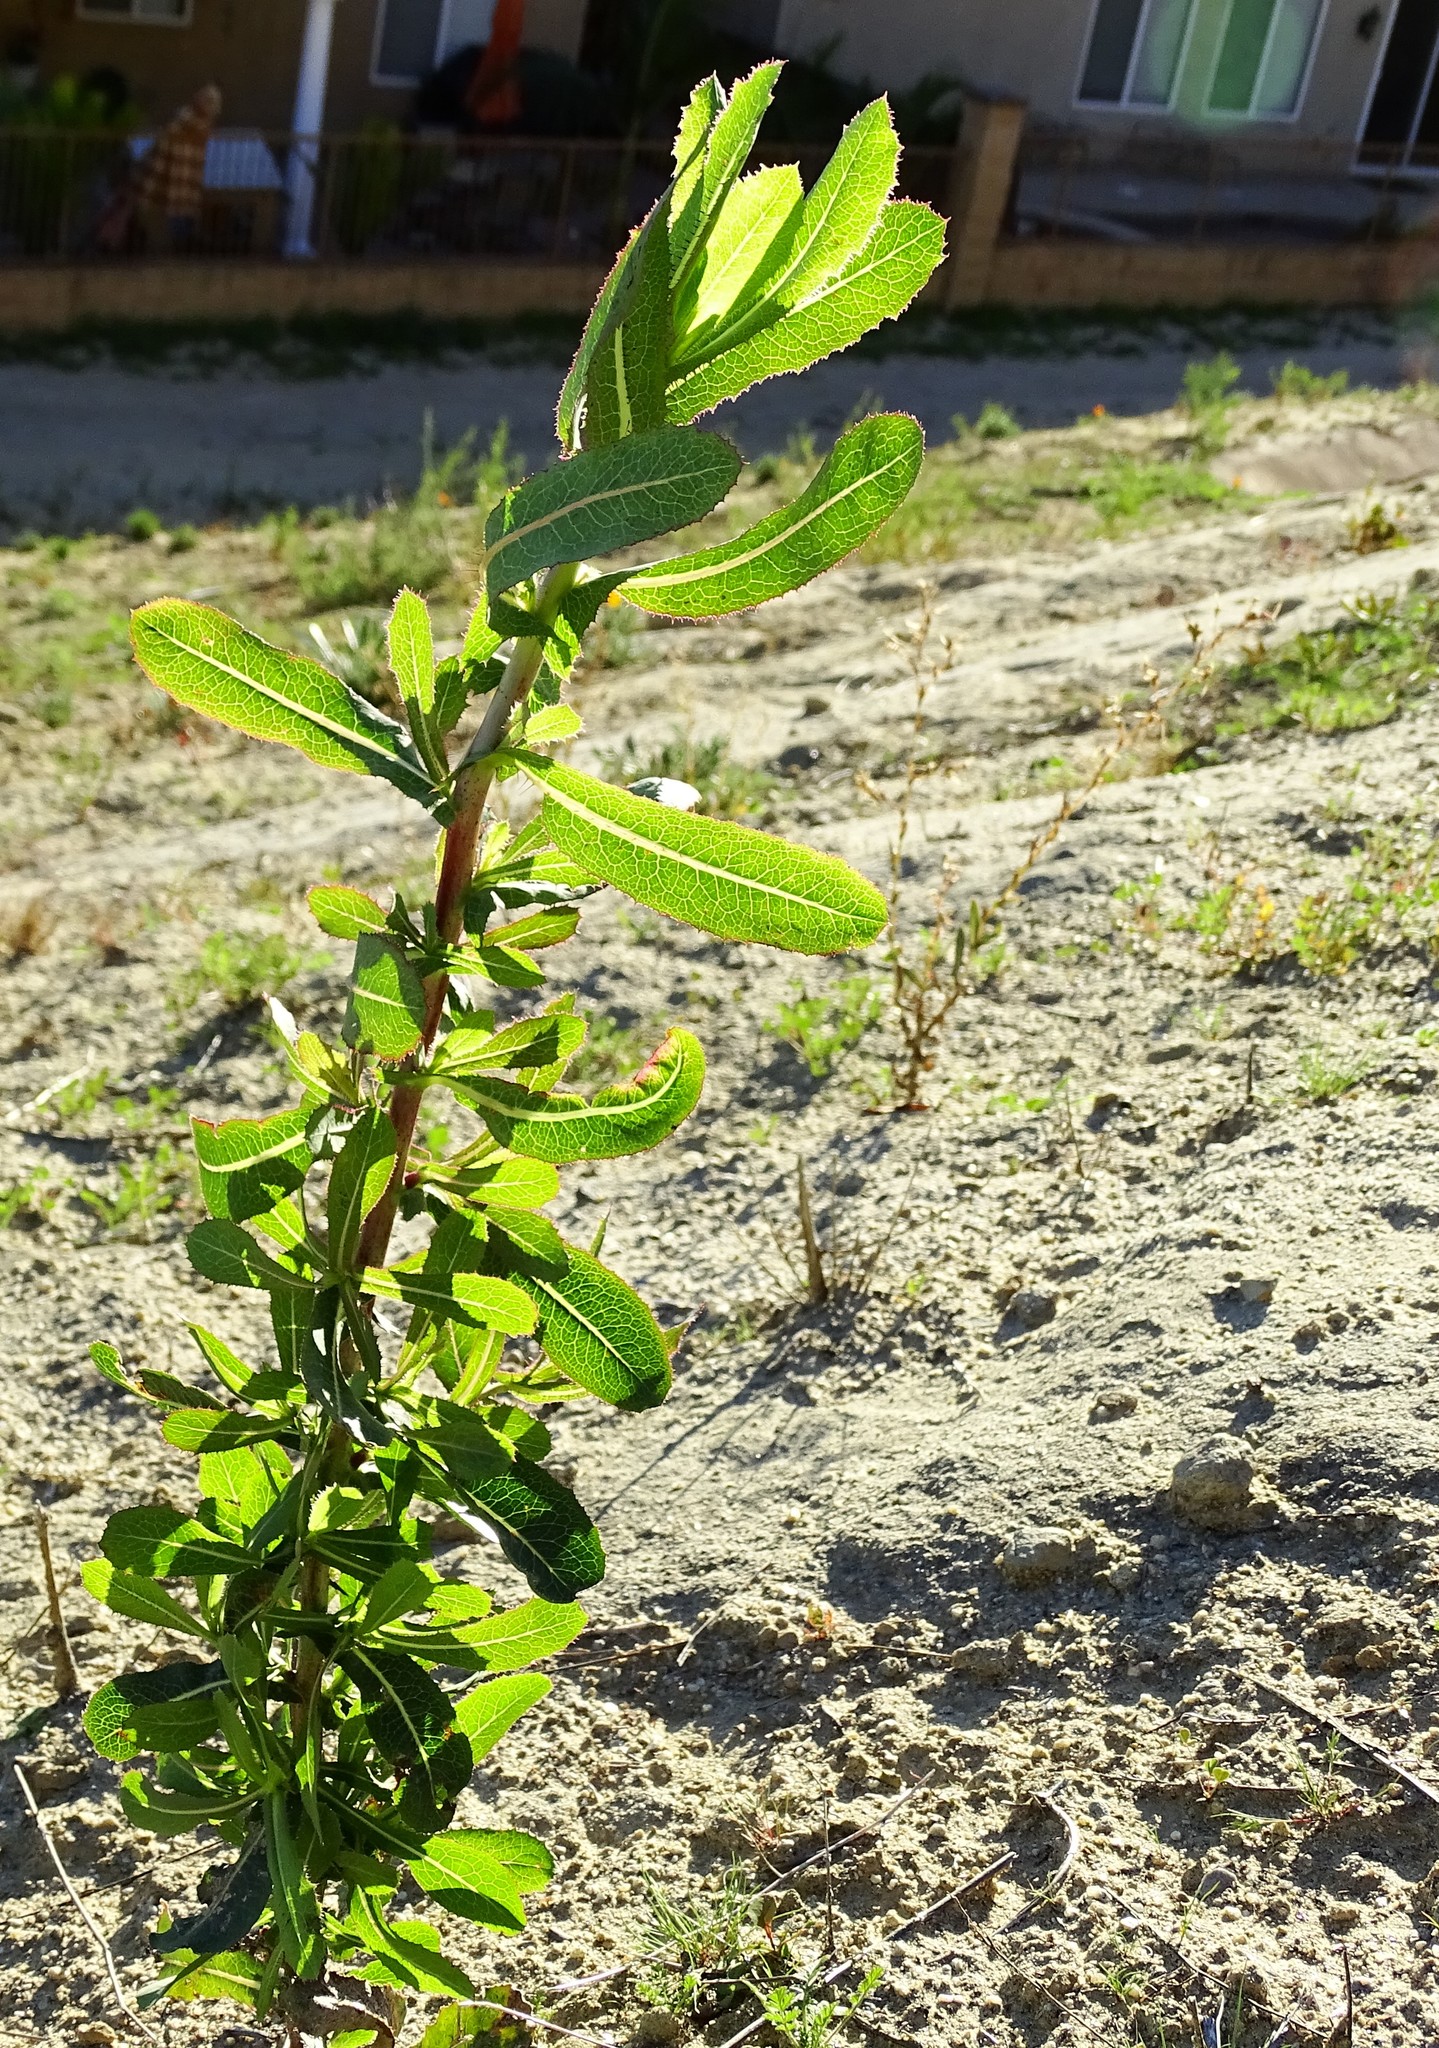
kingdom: Plantae
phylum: Tracheophyta
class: Magnoliopsida
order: Asterales
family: Asteraceae
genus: Lactuca
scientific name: Lactuca serriola
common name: Prickly lettuce
